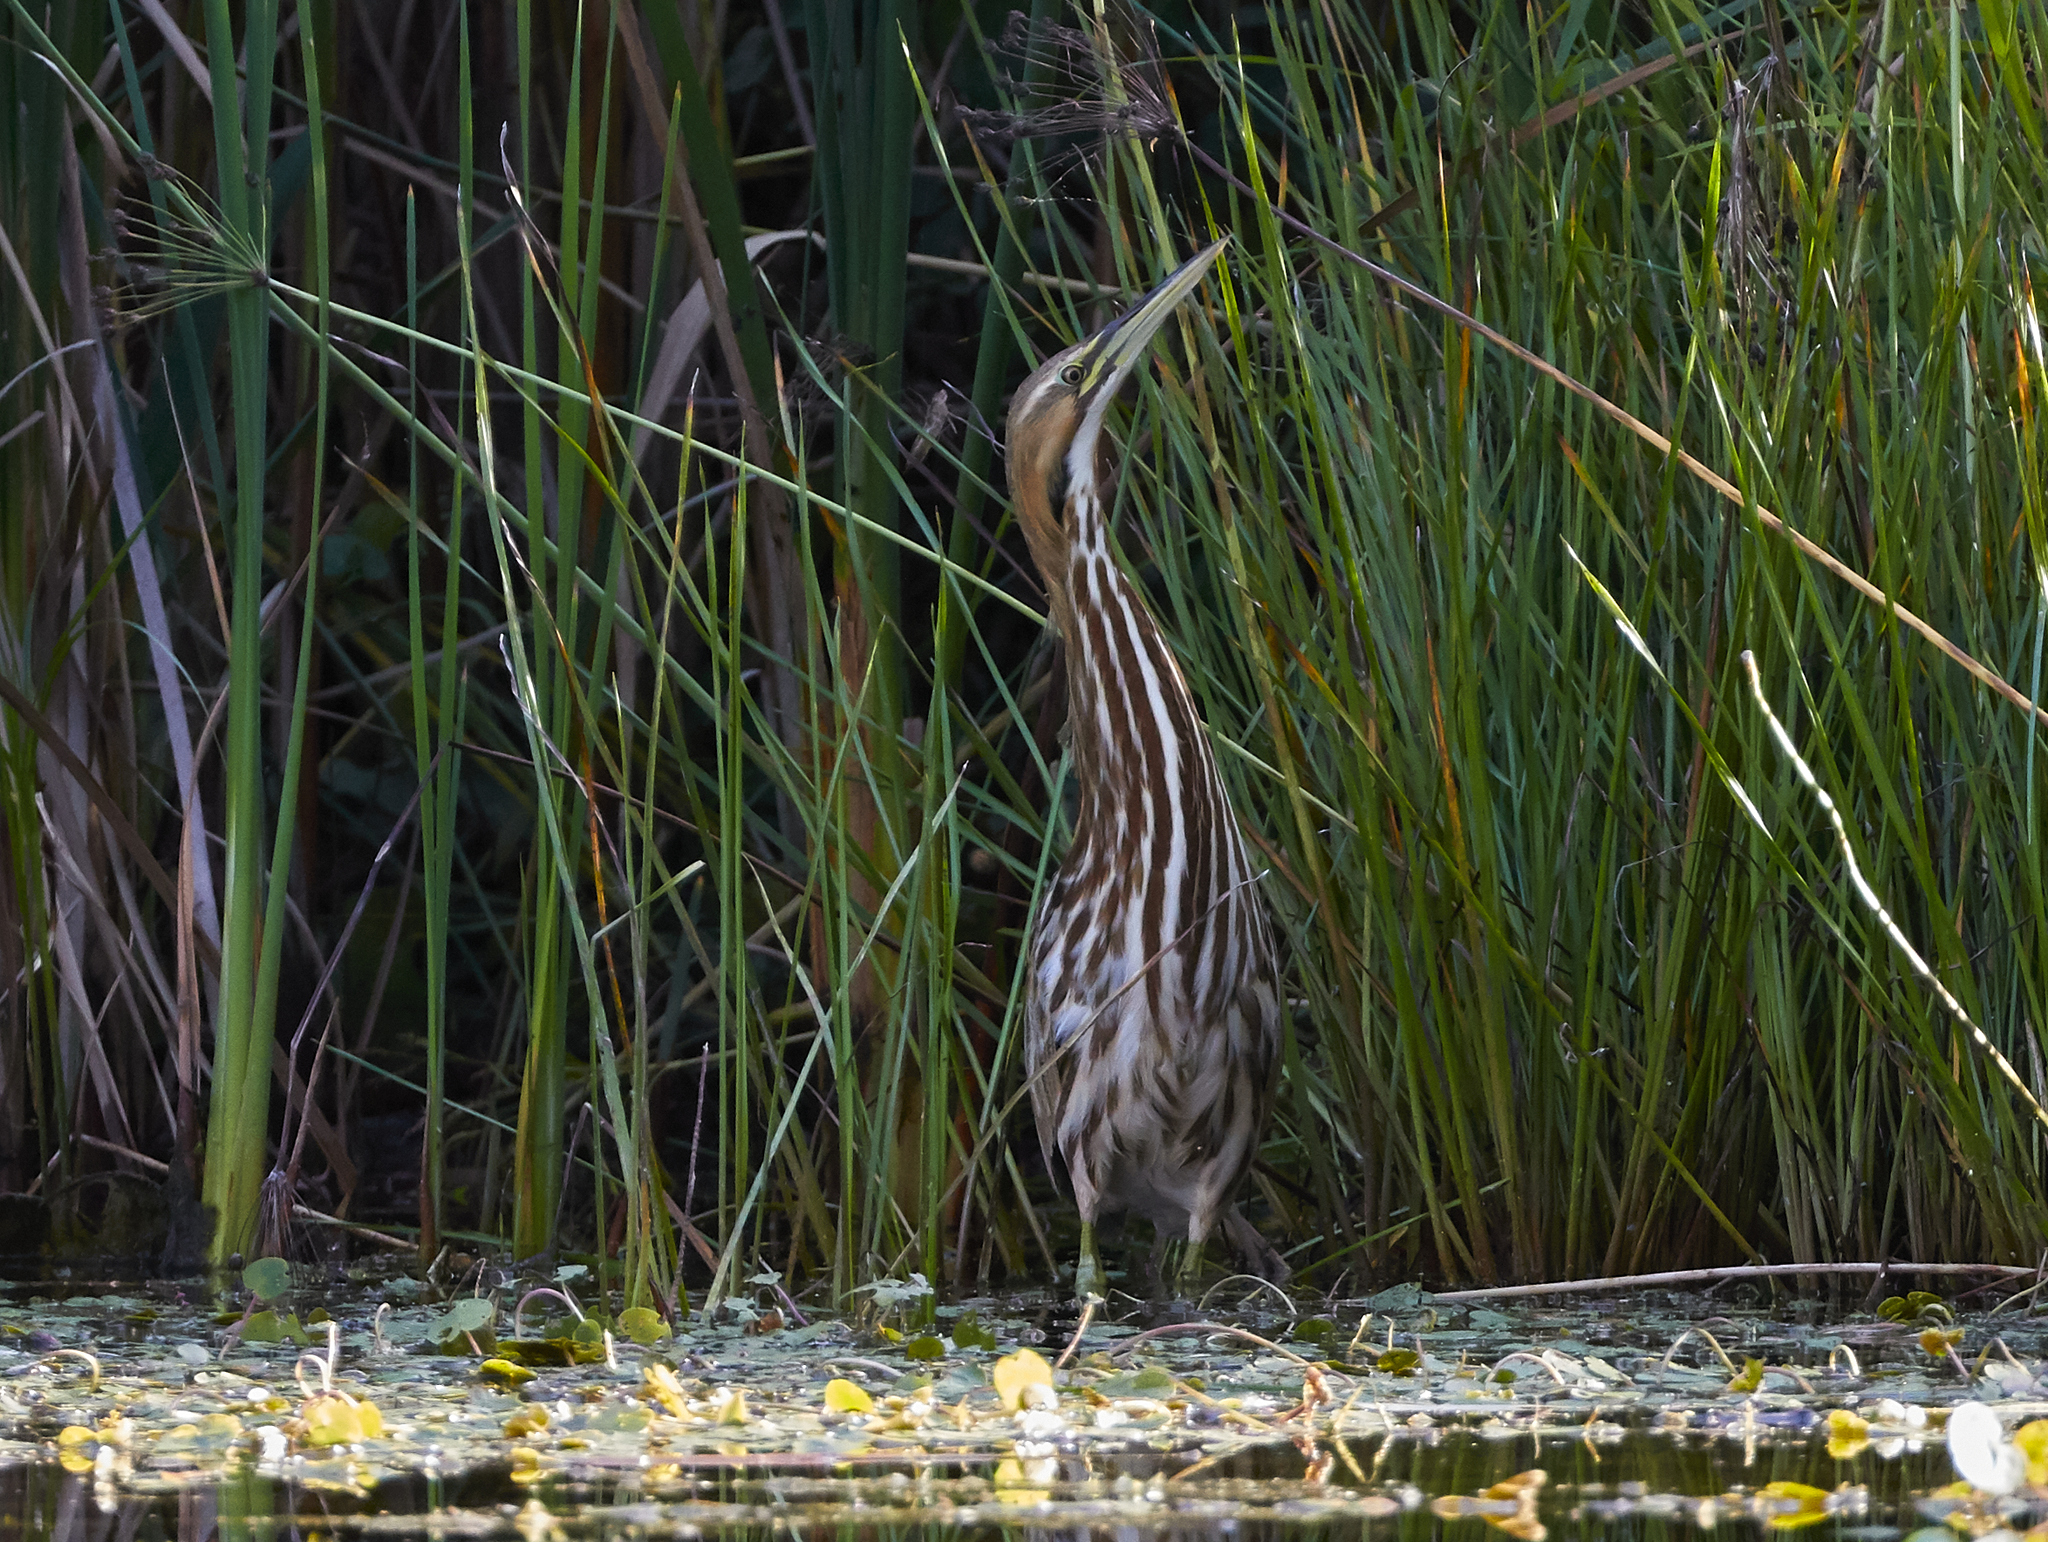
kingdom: Animalia
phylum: Chordata
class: Aves
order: Pelecaniformes
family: Ardeidae
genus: Botaurus
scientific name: Botaurus lentiginosus
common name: American bittern
